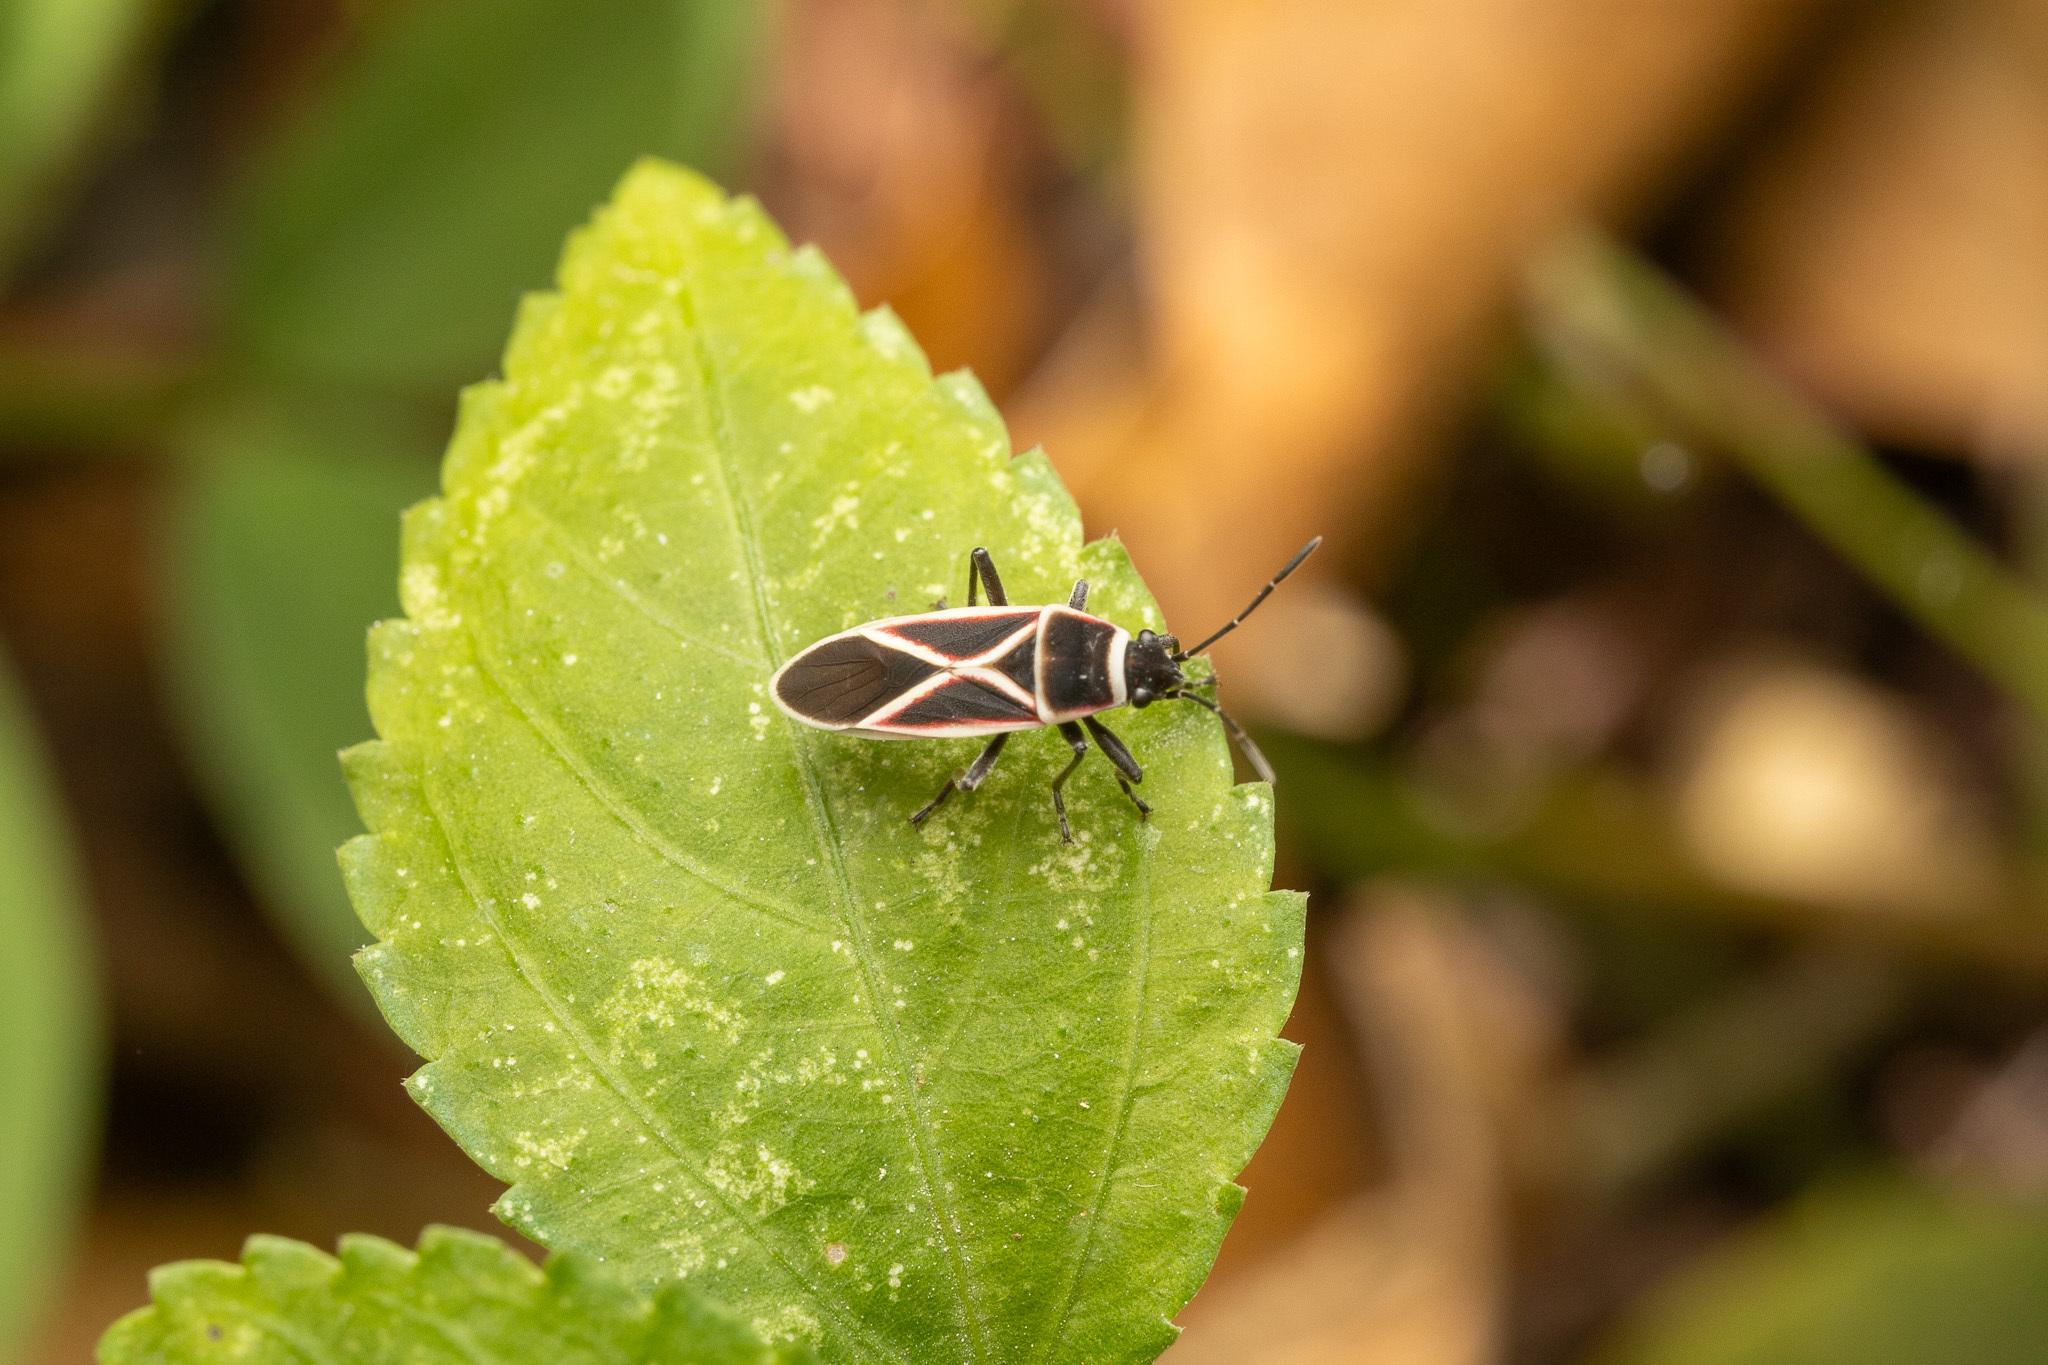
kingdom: Animalia
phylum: Arthropoda
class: Insecta
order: Hemiptera
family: Lygaeidae
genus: Ochrostomus
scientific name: Ochrostomus pulchellus
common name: Lygaeid bug
